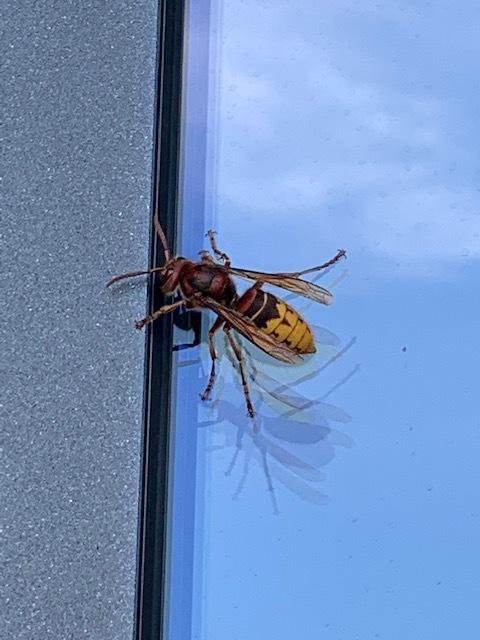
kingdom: Animalia
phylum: Arthropoda
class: Insecta
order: Hymenoptera
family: Vespidae
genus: Vespa
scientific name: Vespa crabro
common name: Hornet
